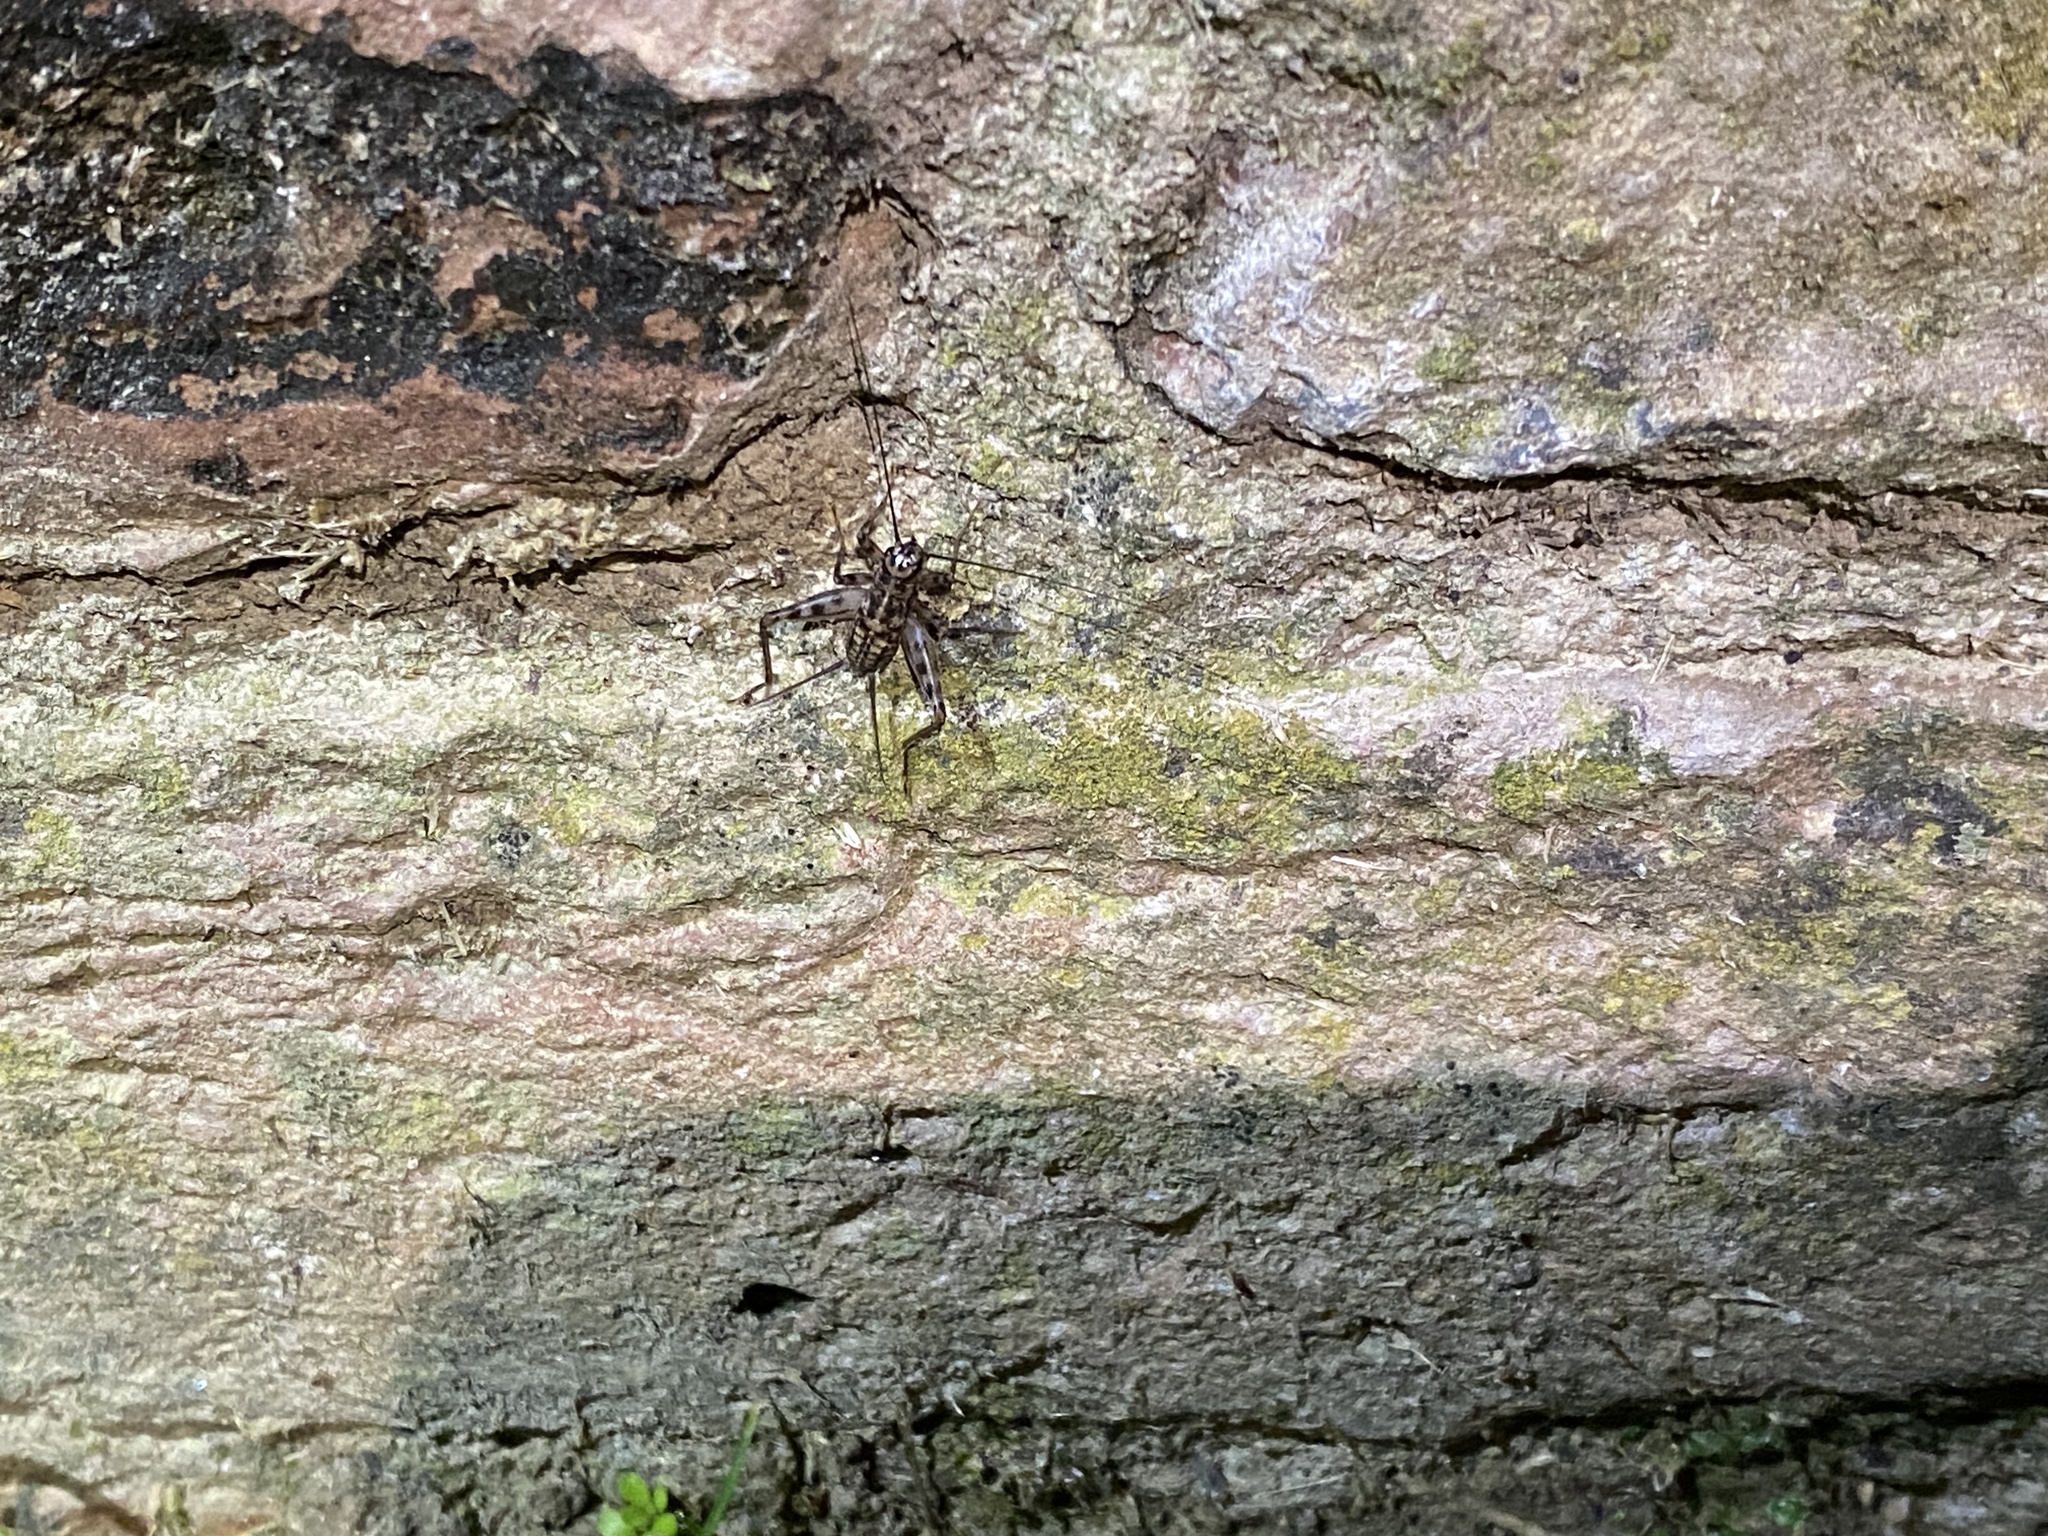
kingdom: Animalia
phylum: Arthropoda
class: Insecta
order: Orthoptera
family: Gryllidae
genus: Gryllomorpha
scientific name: Gryllomorpha dalmatina
